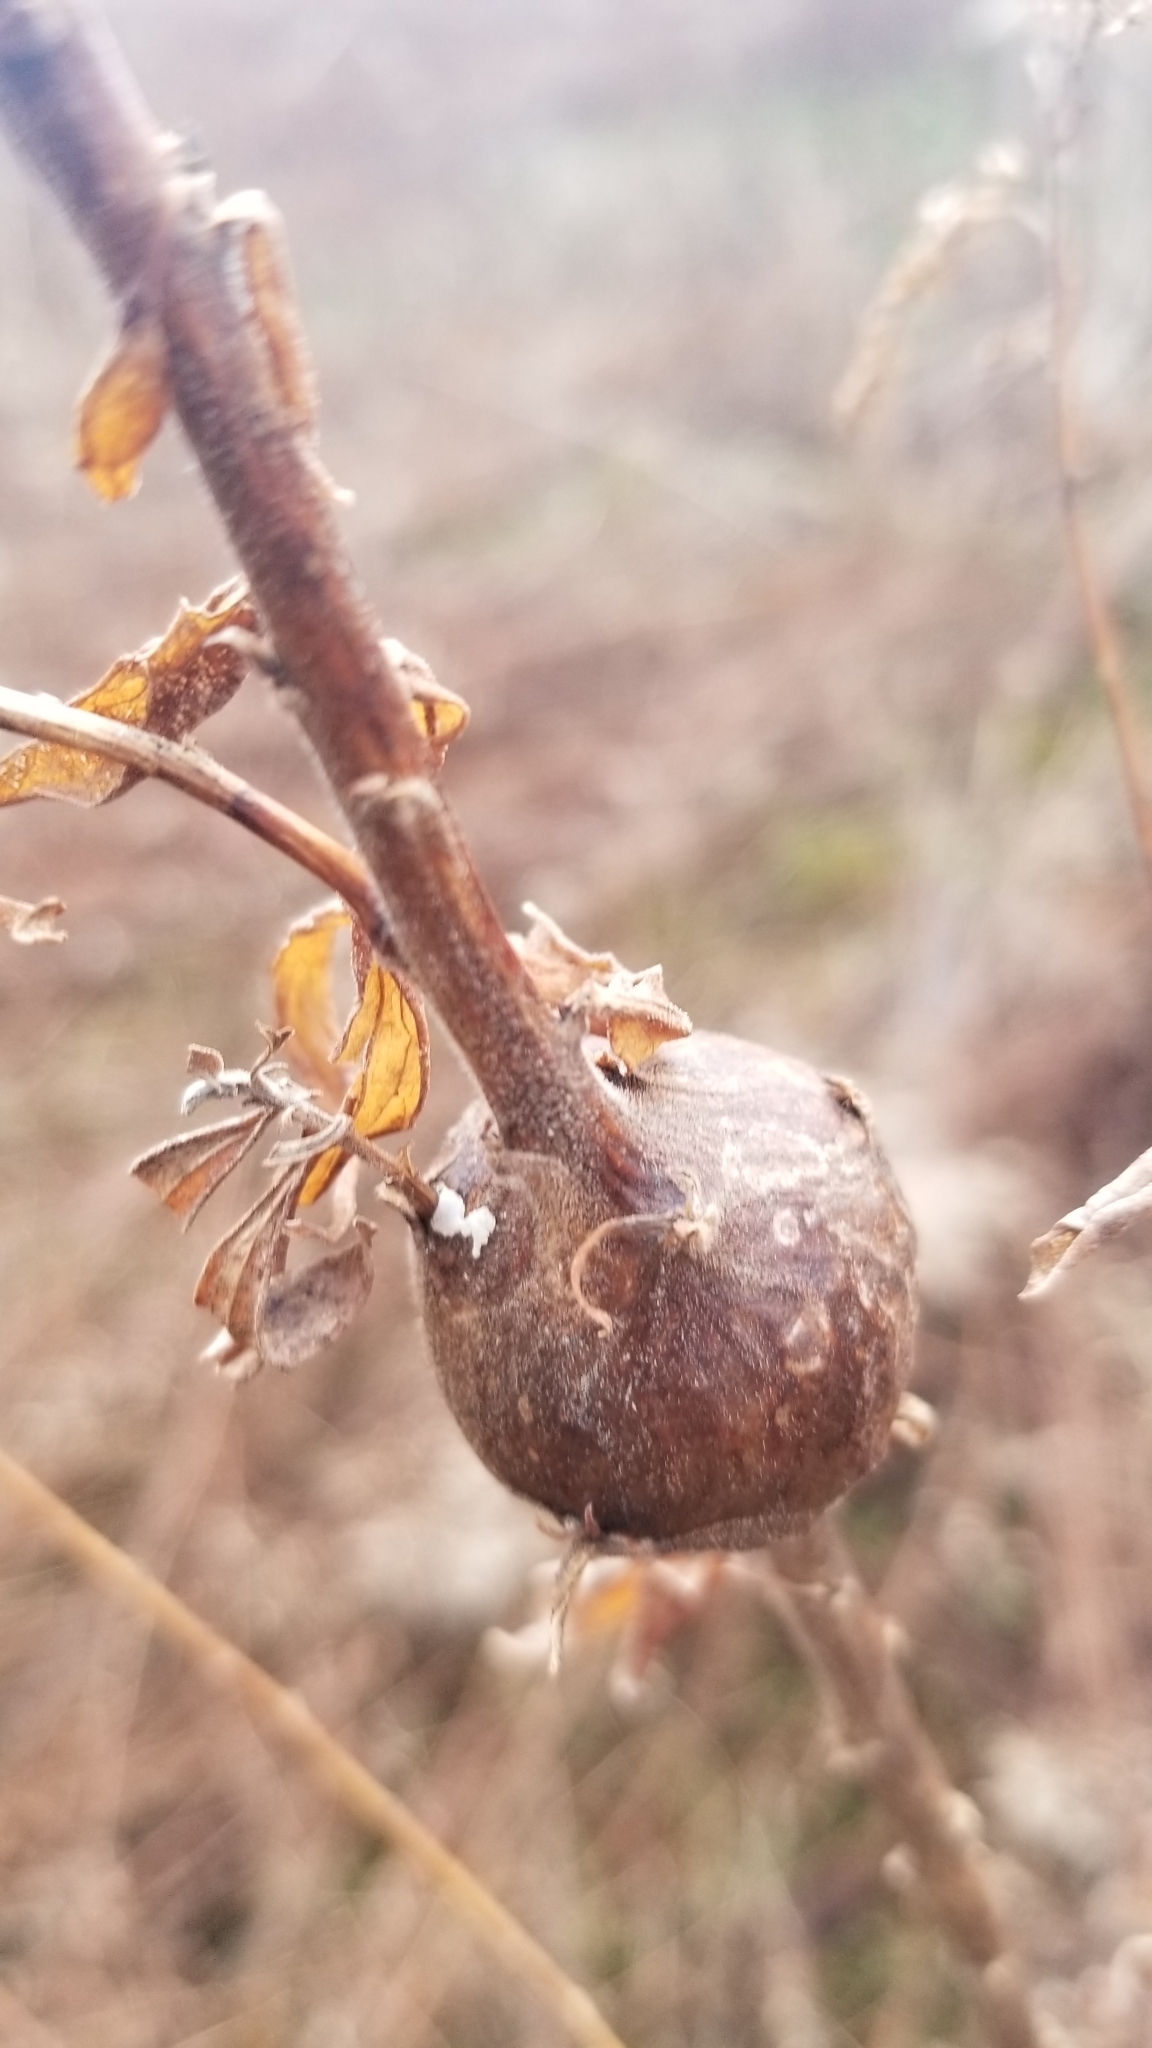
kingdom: Animalia
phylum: Arthropoda
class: Insecta
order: Diptera
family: Tephritidae
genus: Eurosta
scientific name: Eurosta solidaginis
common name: Goldenrod gall fly
